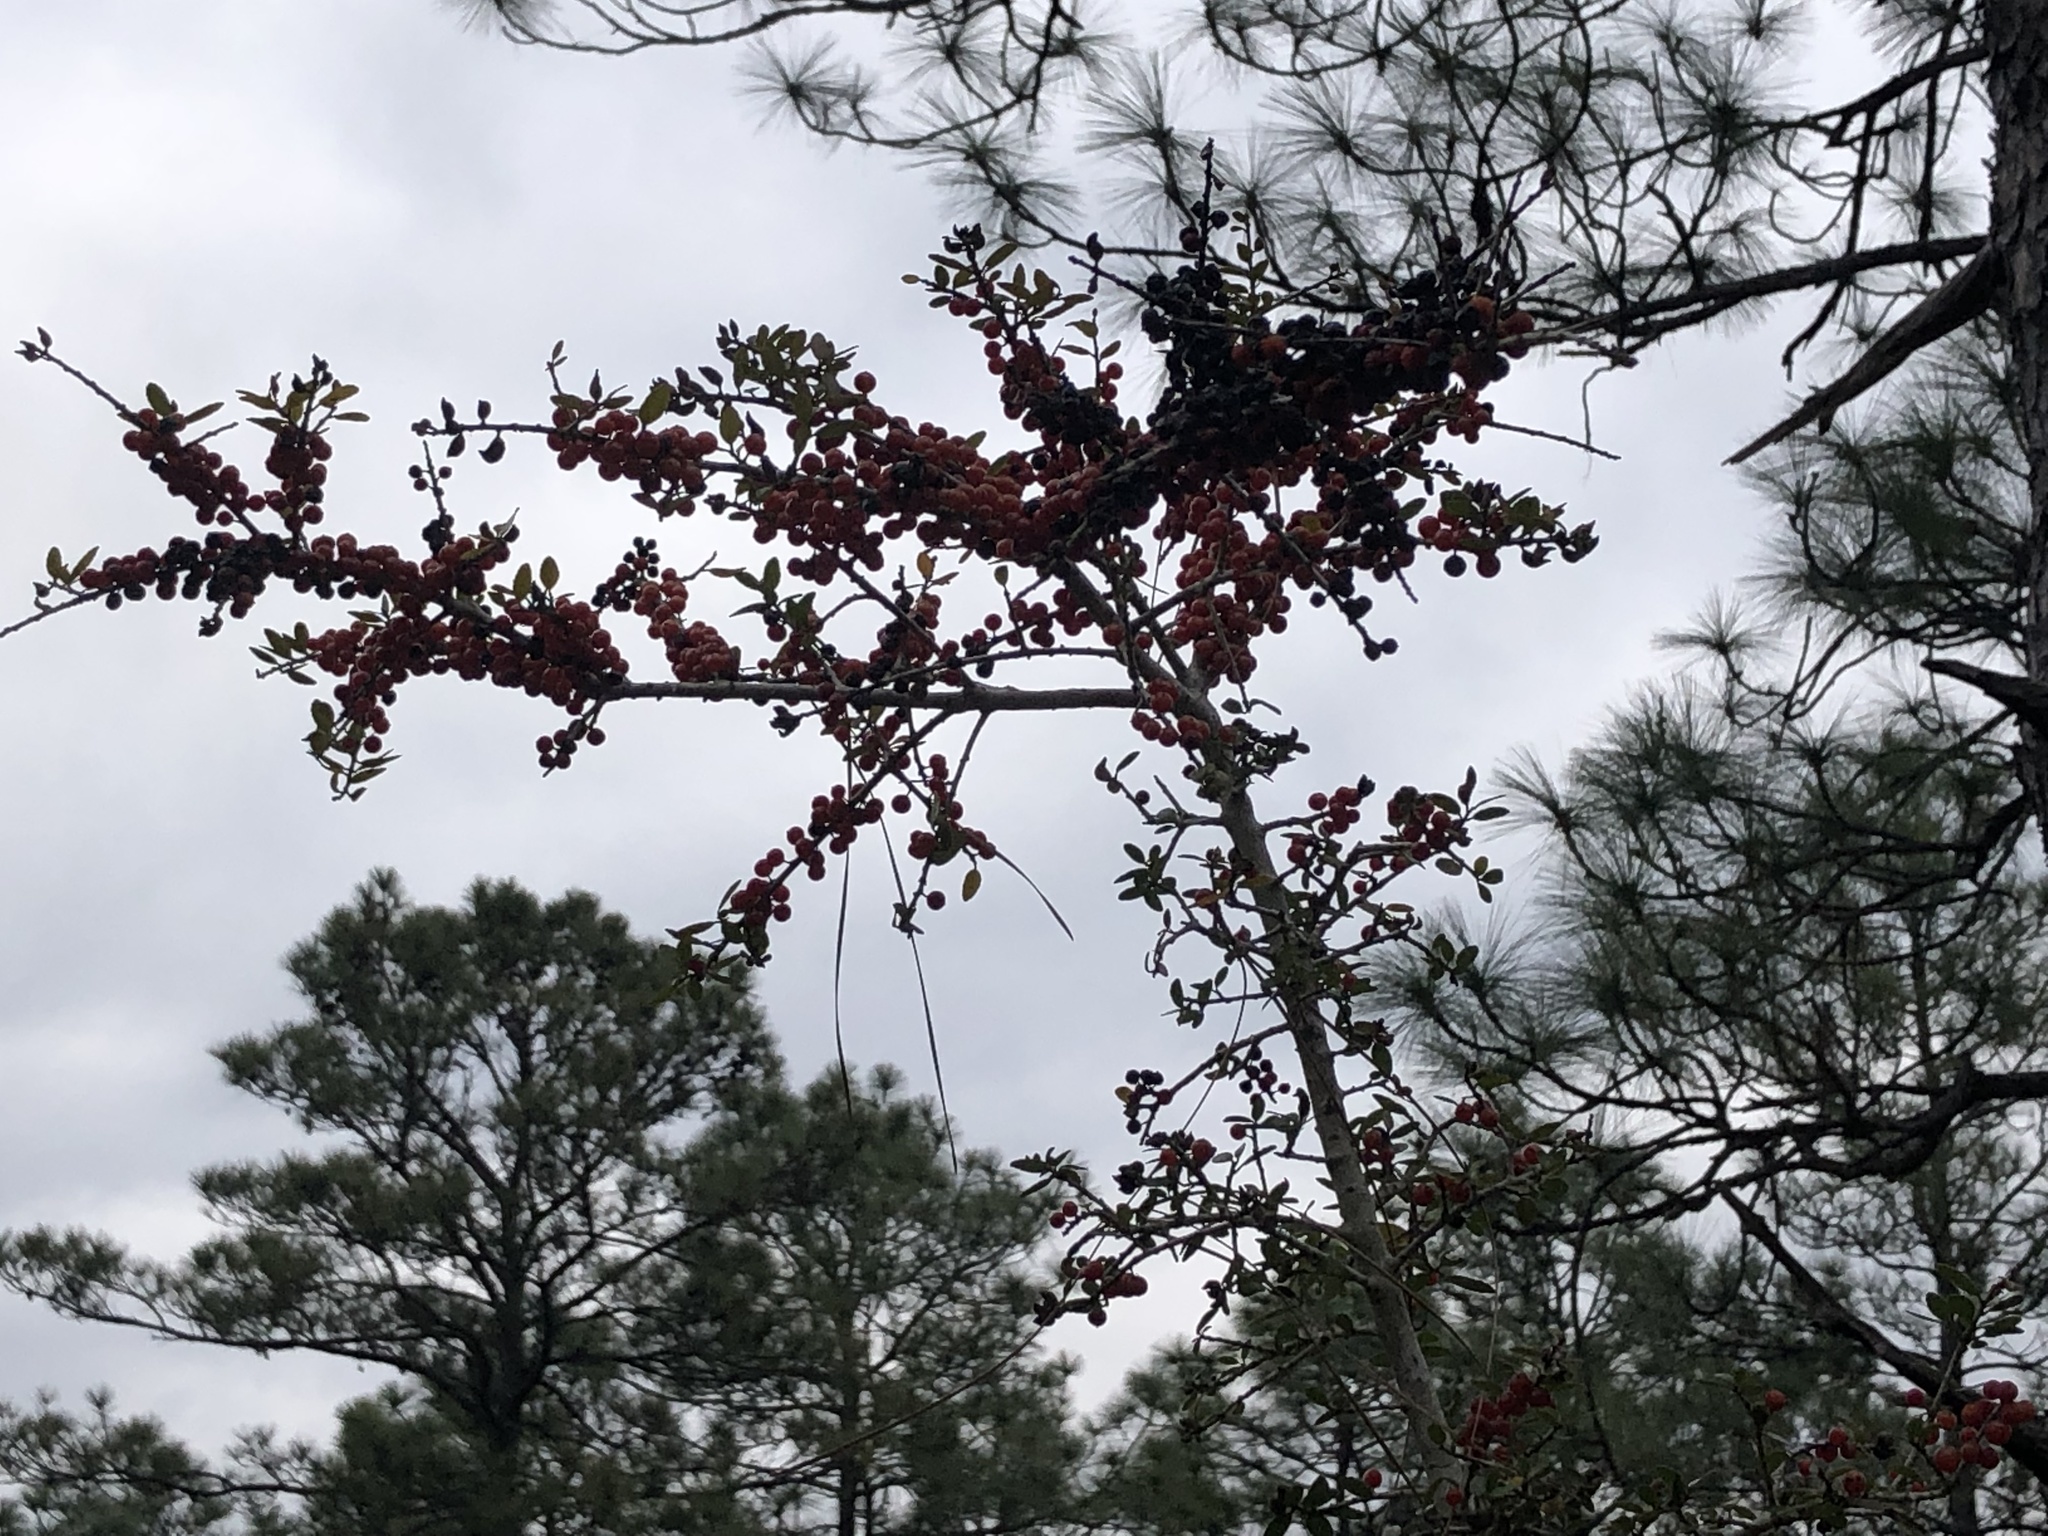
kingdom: Plantae
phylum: Tracheophyta
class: Magnoliopsida
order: Aquifoliales
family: Aquifoliaceae
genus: Ilex
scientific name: Ilex vomitoria
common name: Yaupon holly
